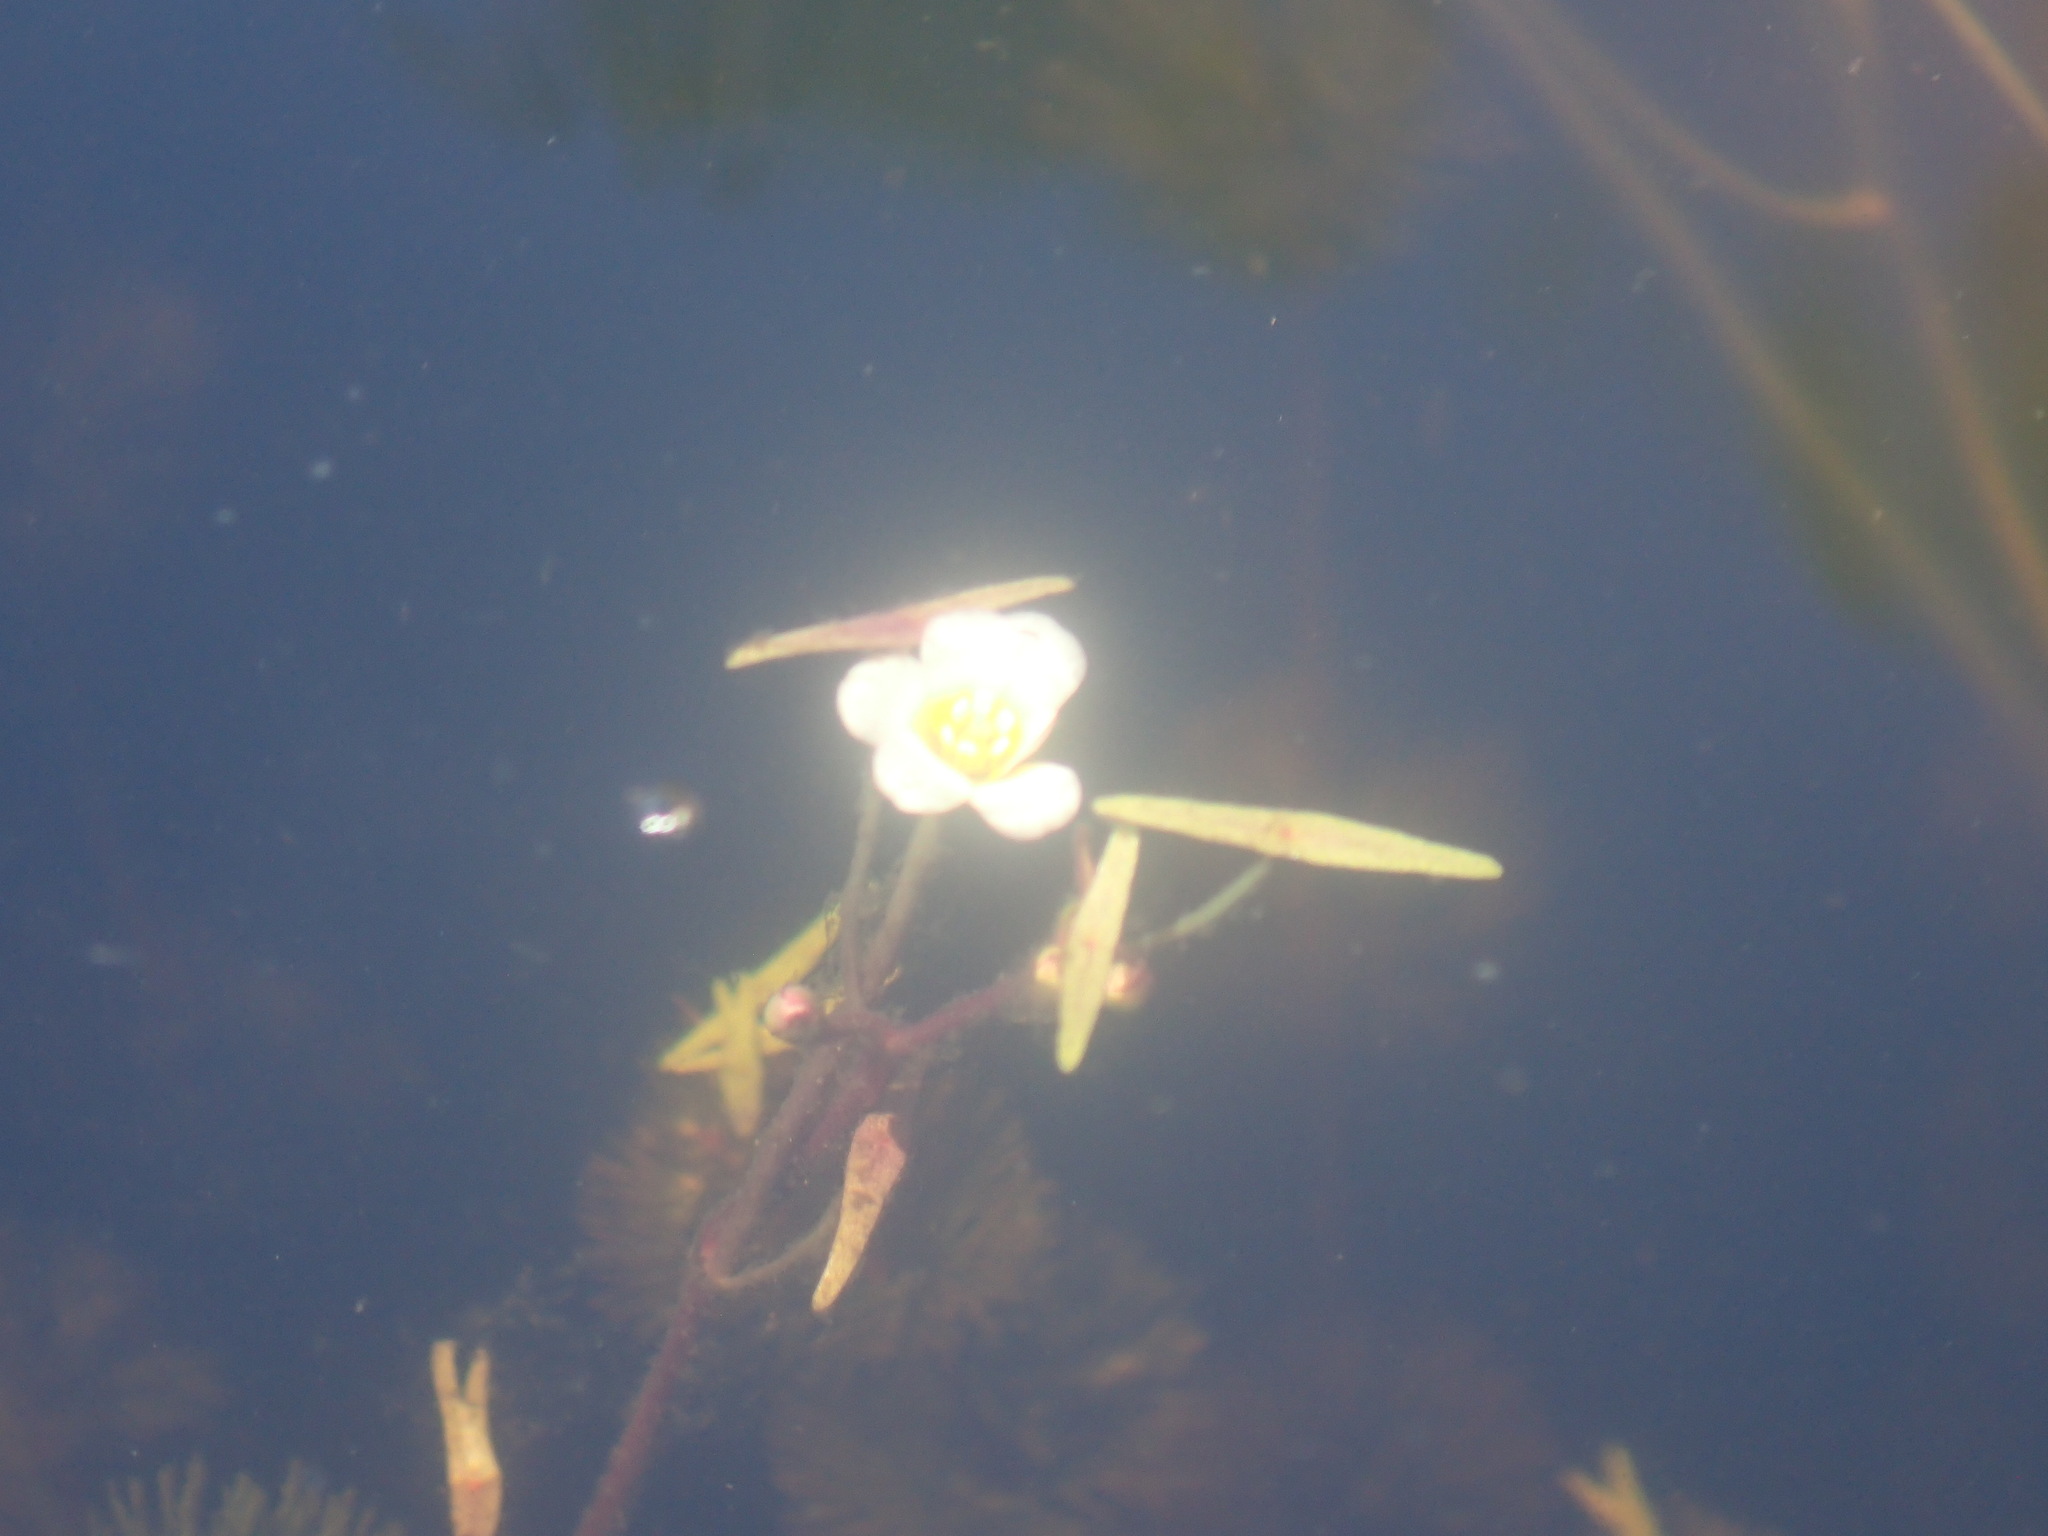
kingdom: Plantae
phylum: Tracheophyta
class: Magnoliopsida
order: Nymphaeales
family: Cabombaceae
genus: Cabomba
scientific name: Cabomba caroliniana
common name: Fanwort
